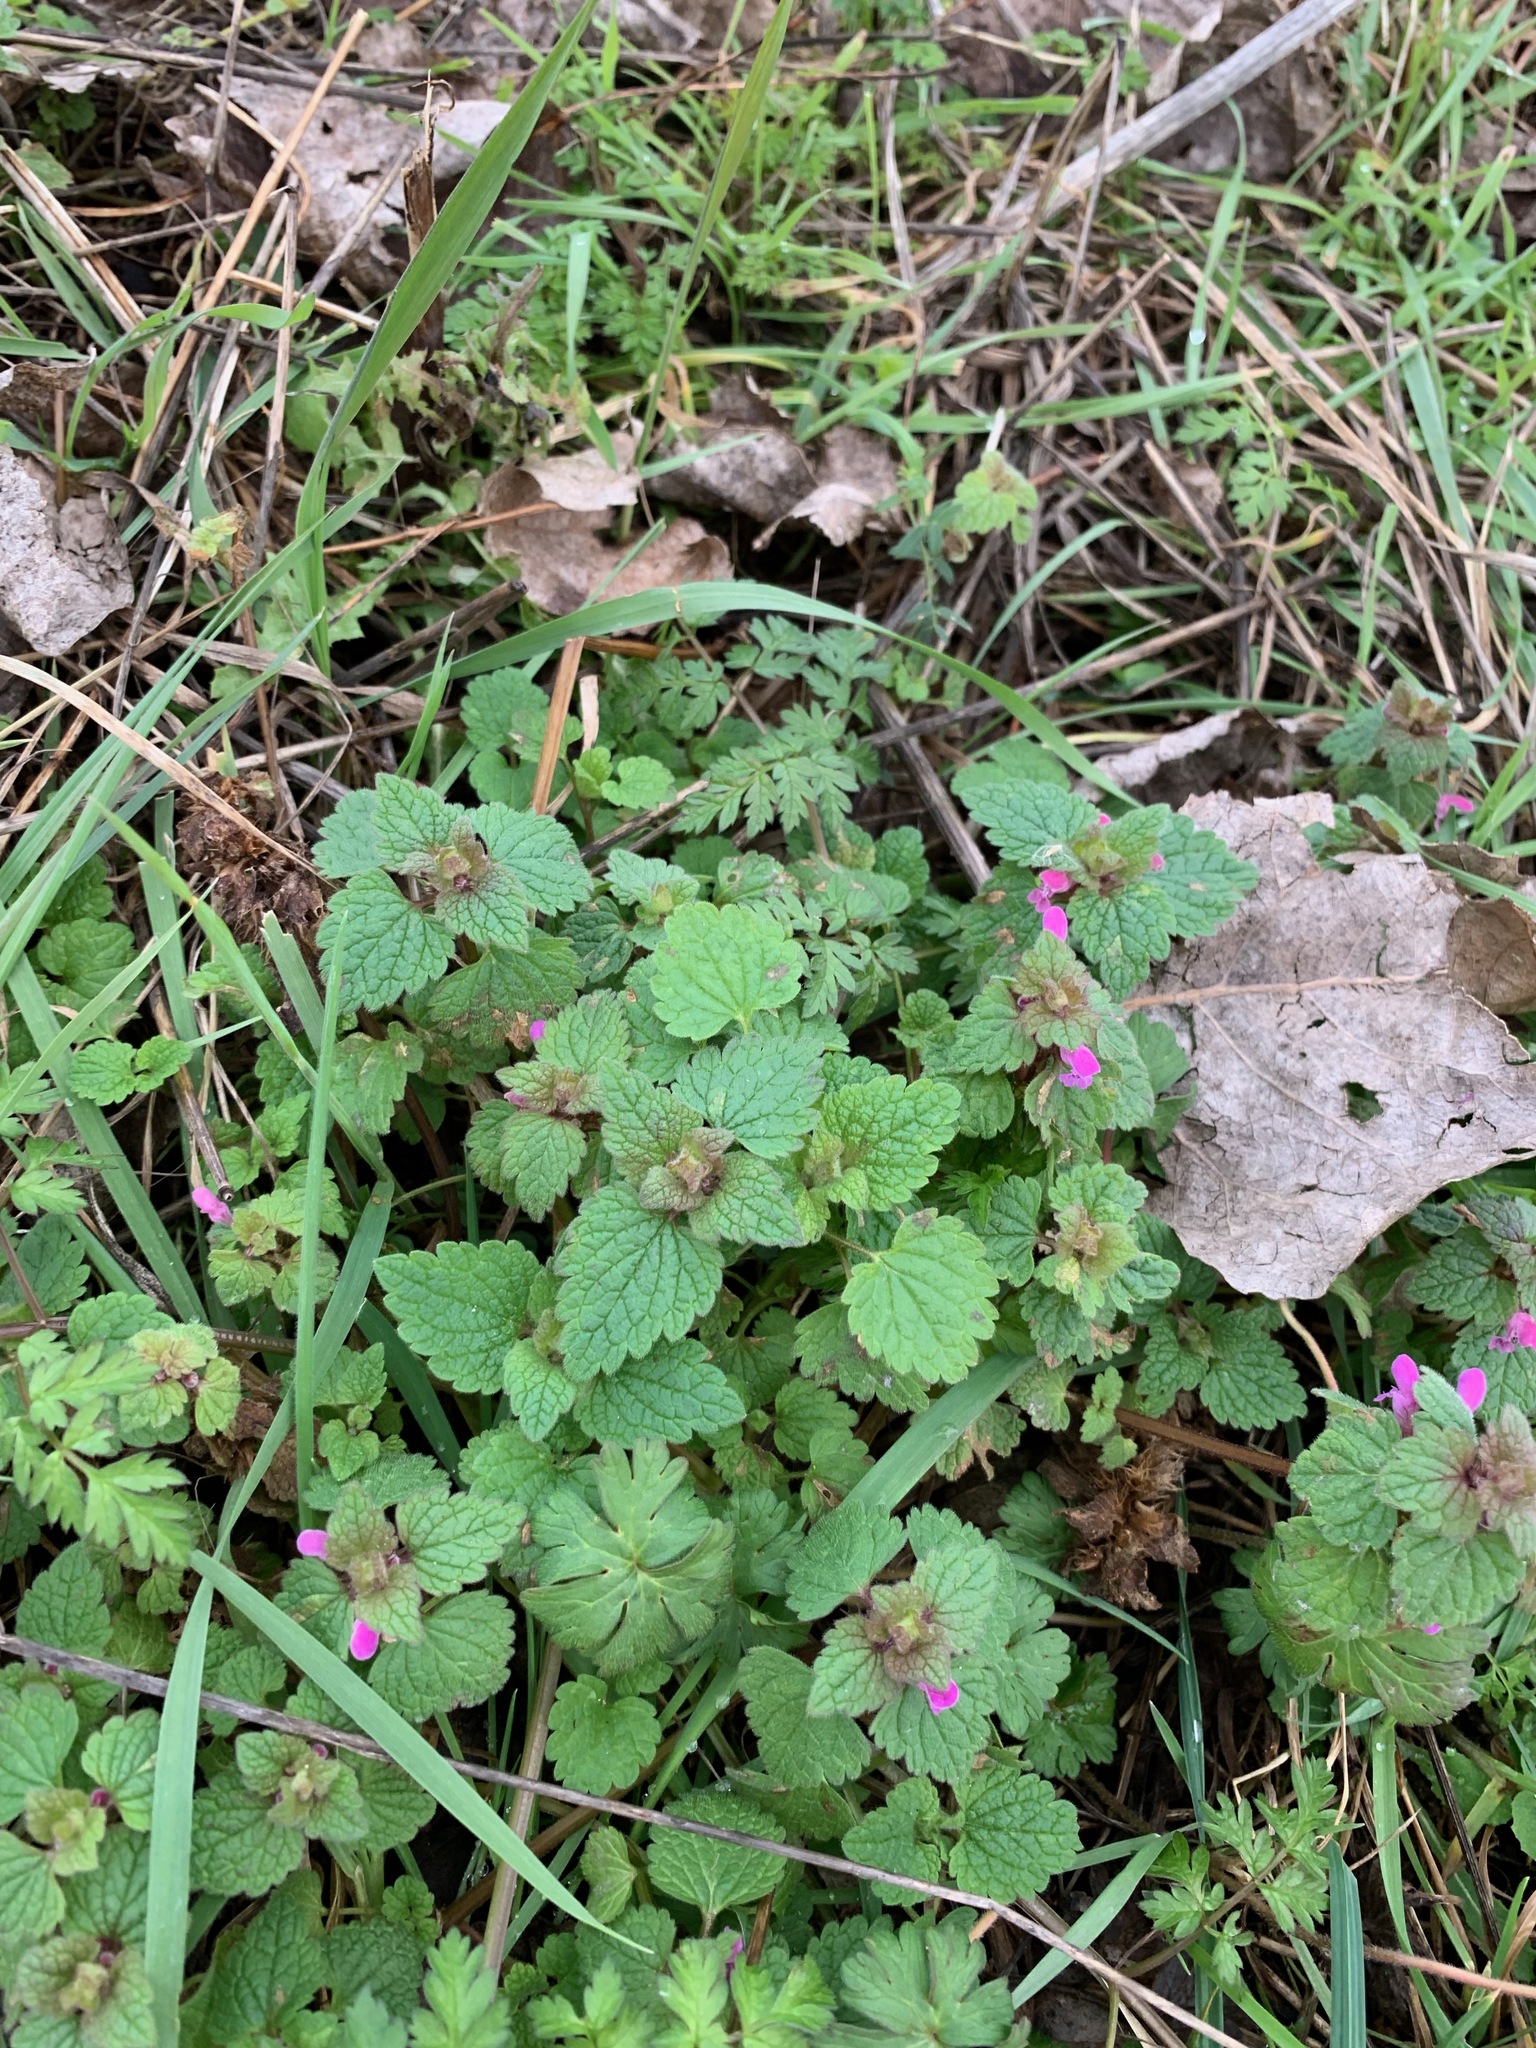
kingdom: Plantae
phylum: Tracheophyta
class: Magnoliopsida
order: Lamiales
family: Lamiaceae
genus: Lamium
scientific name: Lamium purpureum
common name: Red dead-nettle
